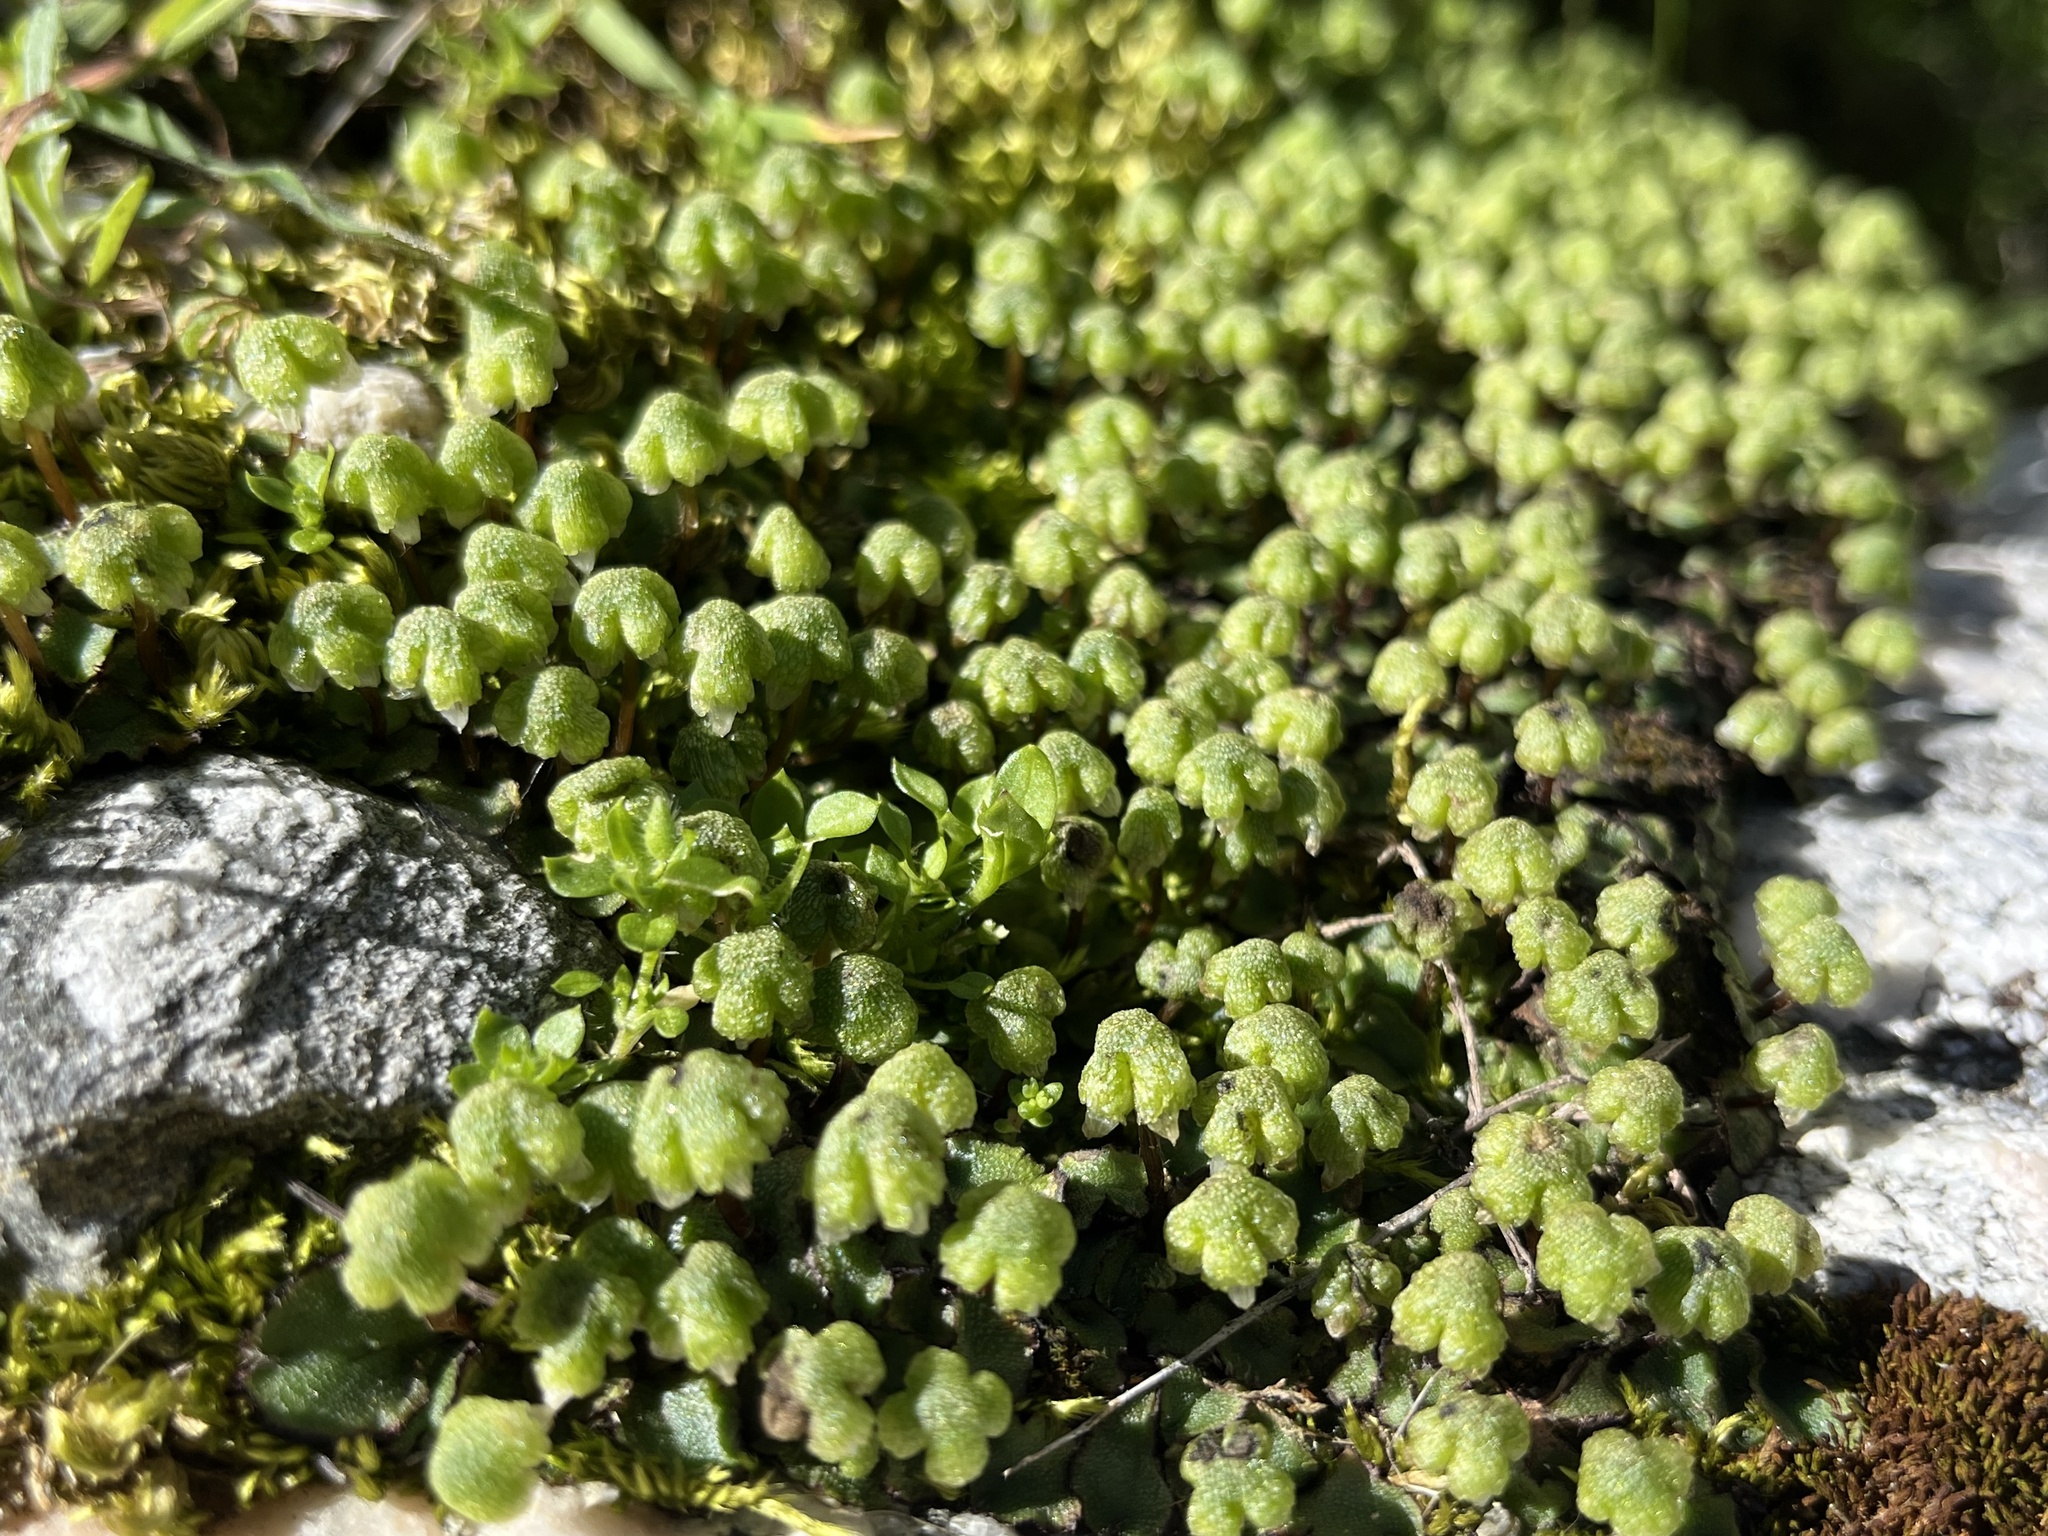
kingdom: Plantae
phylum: Marchantiophyta
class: Marchantiopsida
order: Marchantiales
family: Aytoniaceae
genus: Asterella
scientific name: Asterella californica
